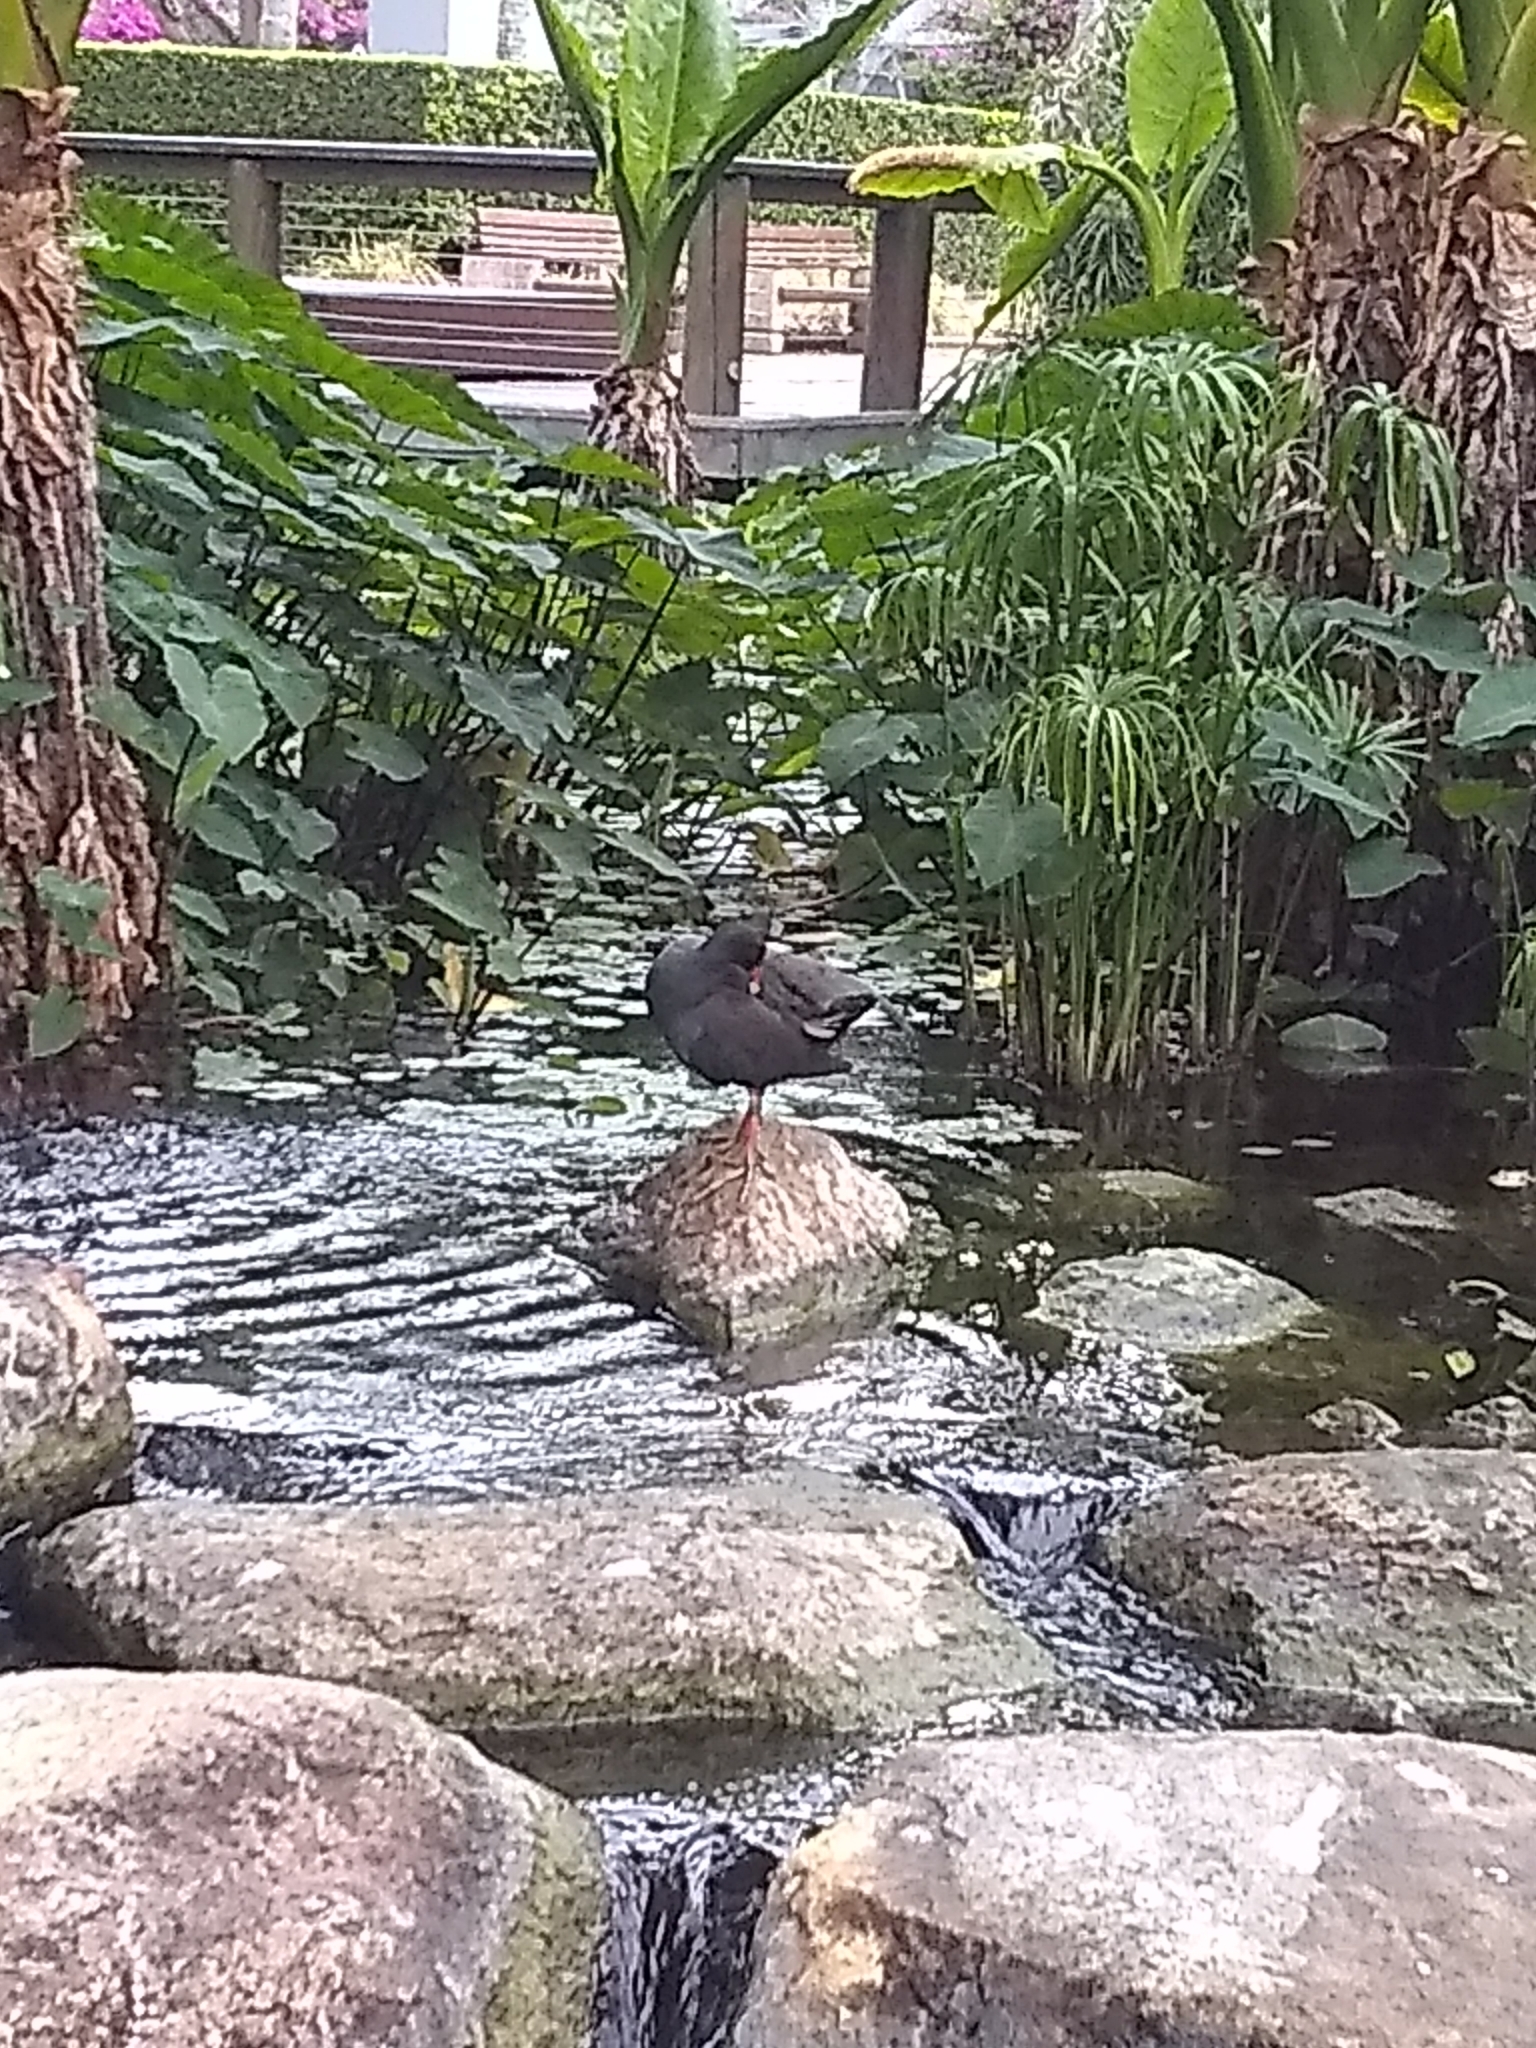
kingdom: Animalia
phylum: Chordata
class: Aves
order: Gruiformes
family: Rallidae
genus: Gallinula
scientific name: Gallinula tenebrosa
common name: Dusky moorhen
